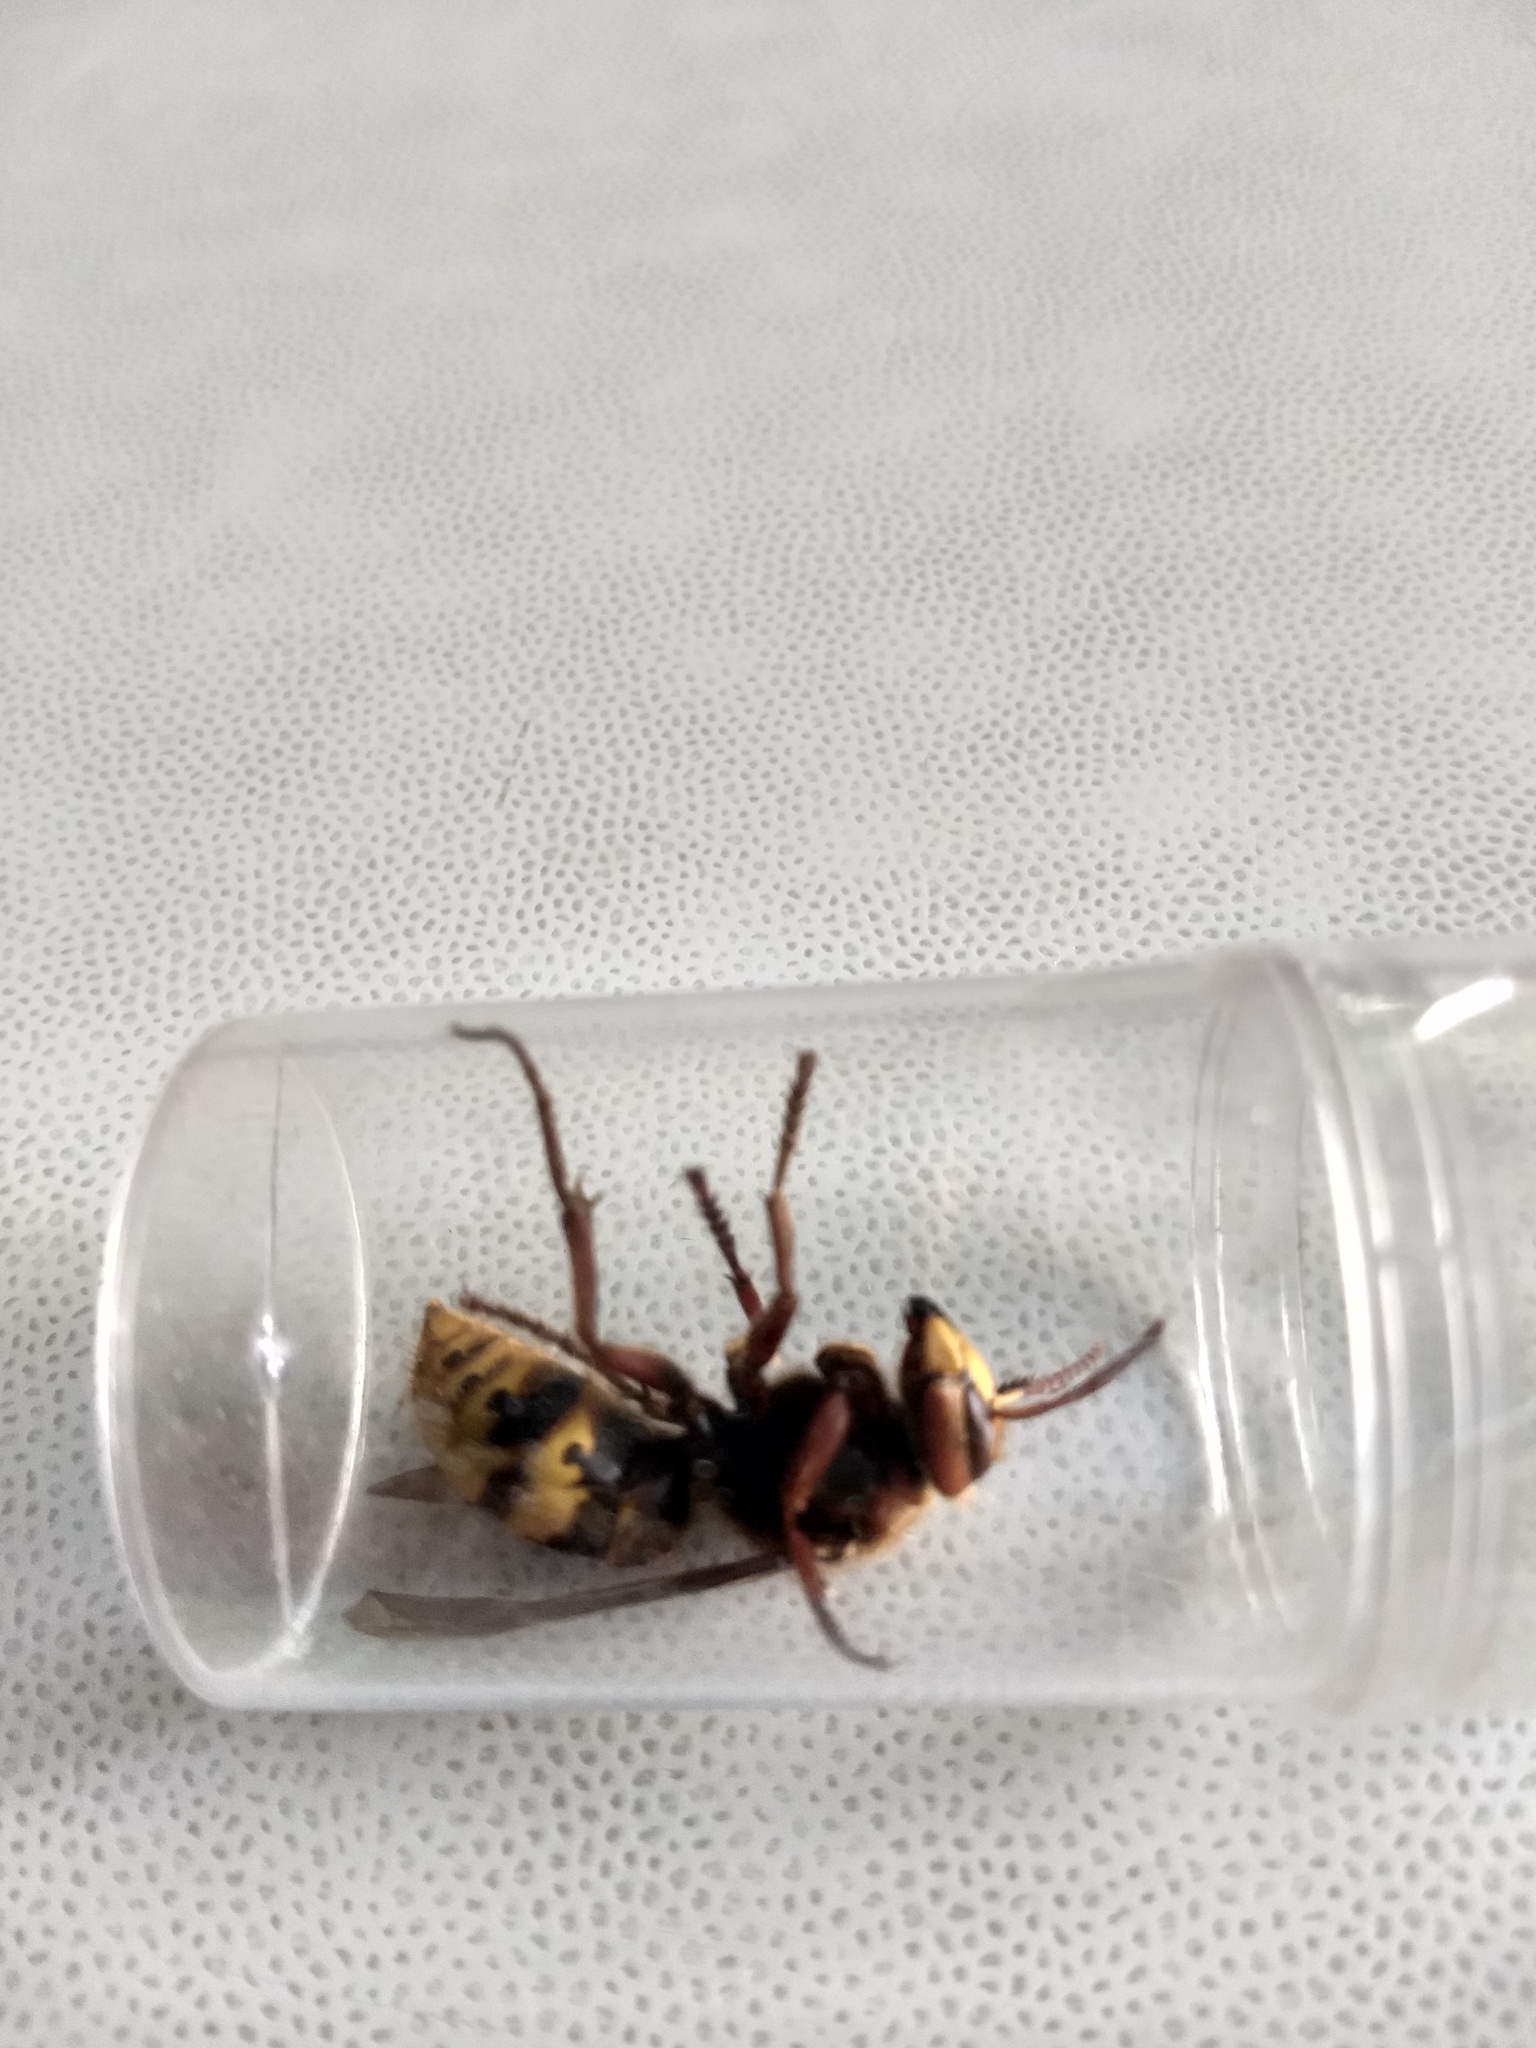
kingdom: Animalia
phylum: Arthropoda
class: Insecta
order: Hymenoptera
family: Vespidae
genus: Vespa
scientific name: Vespa crabro
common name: Hornet
